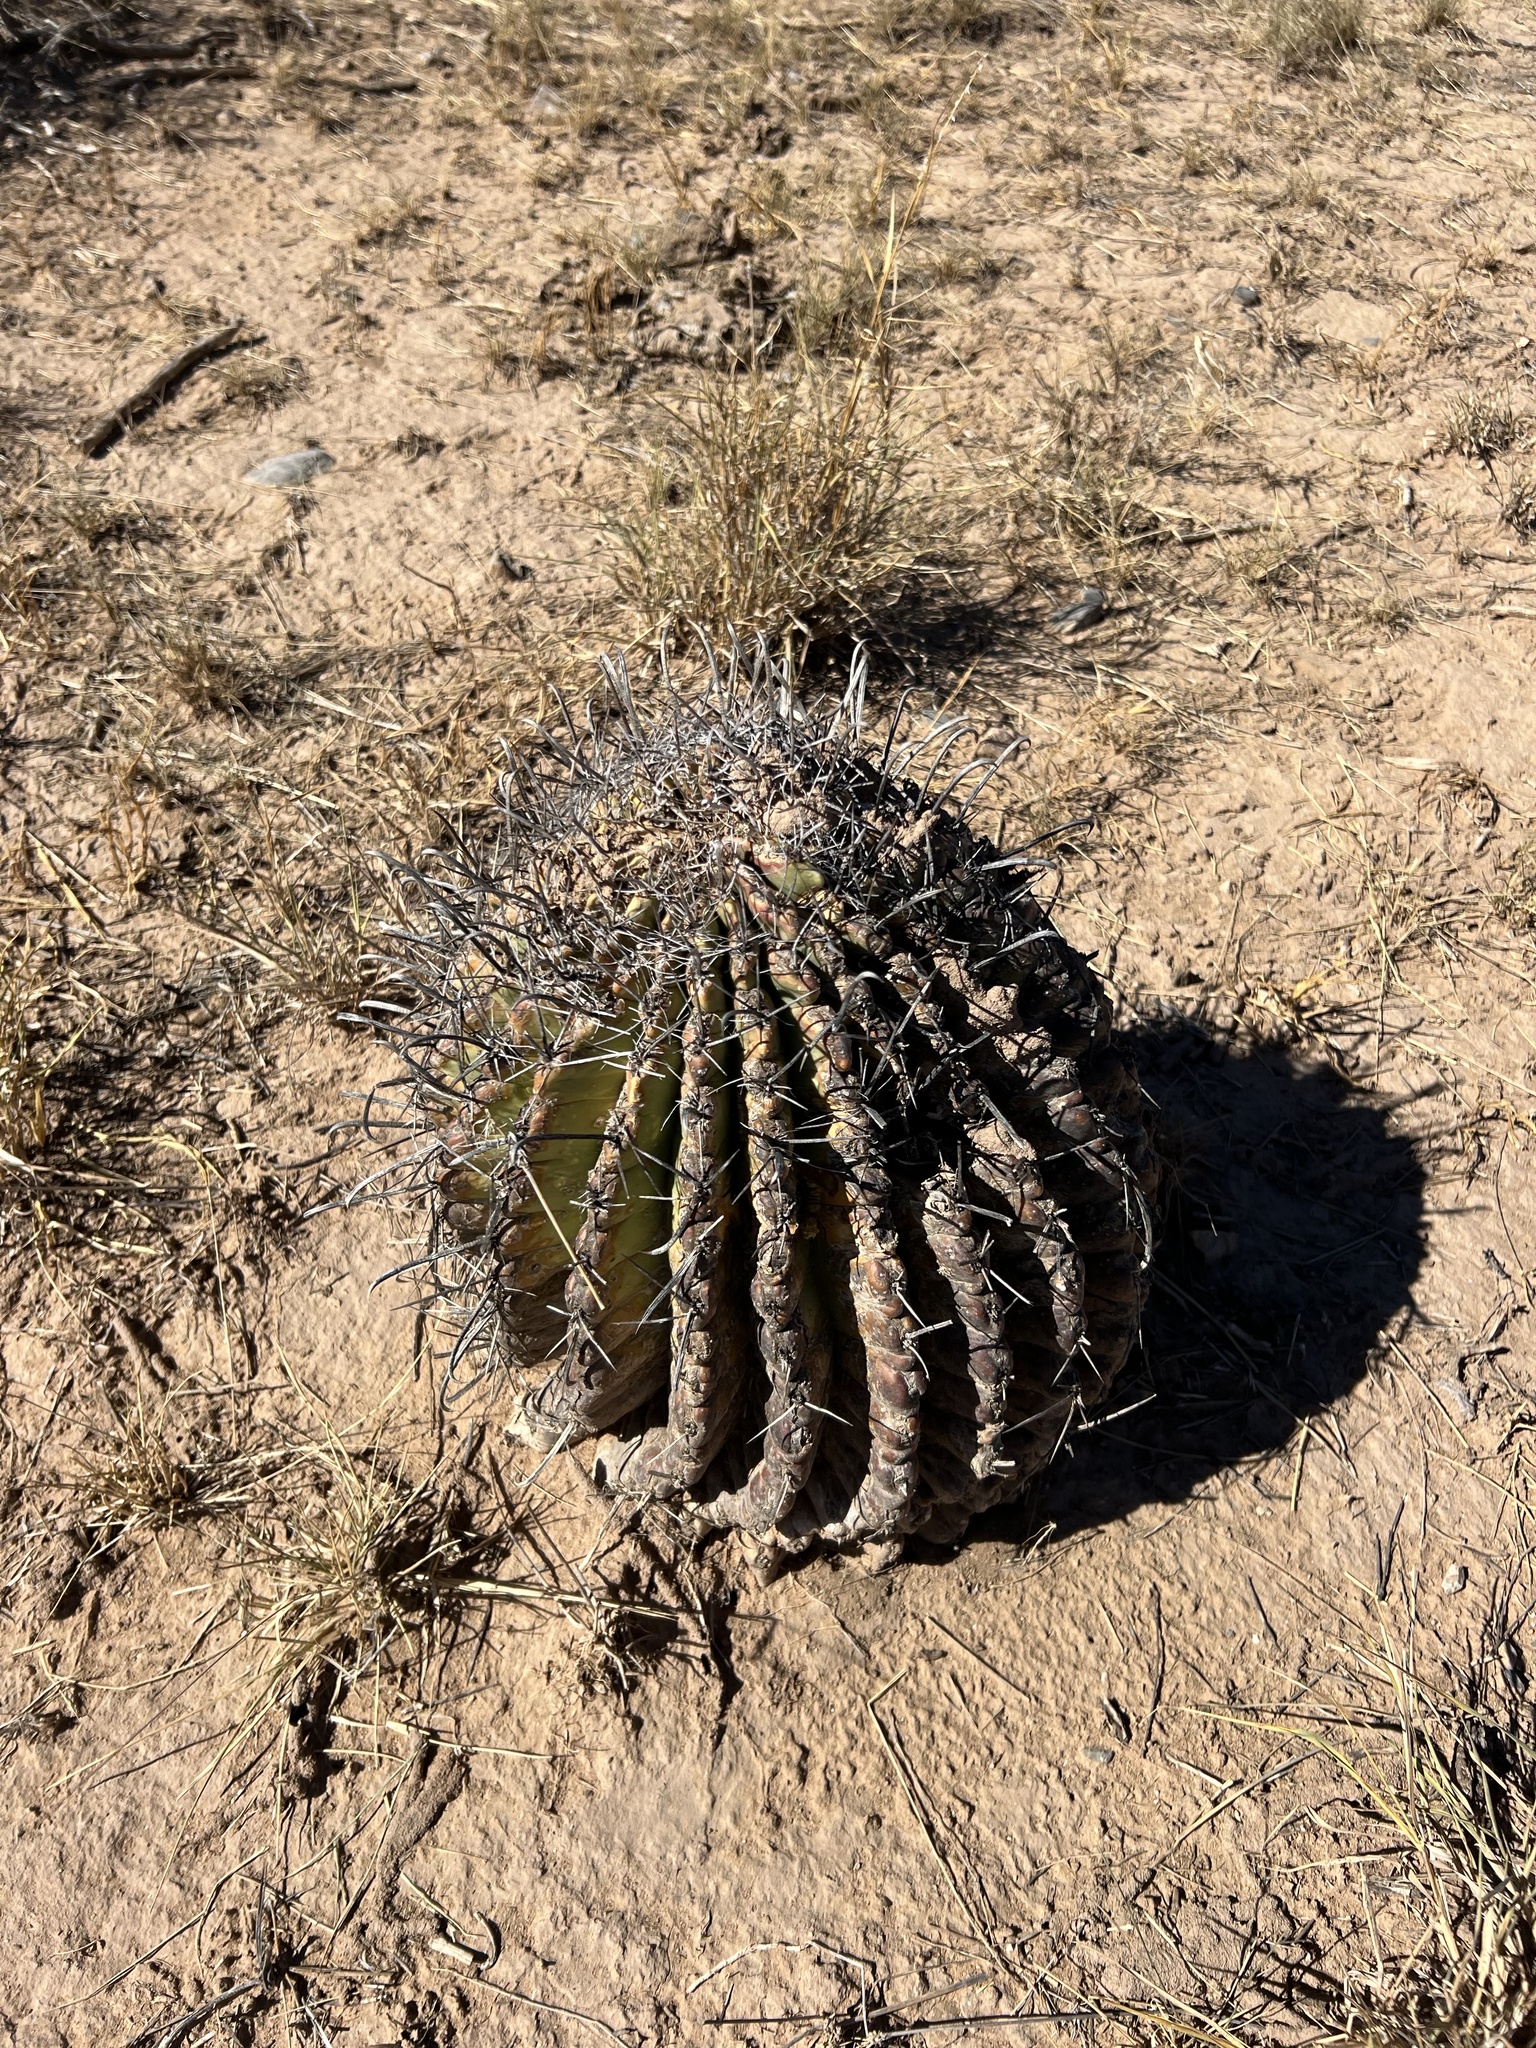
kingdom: Plantae
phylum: Tracheophyta
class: Magnoliopsida
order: Caryophyllales
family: Cactaceae
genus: Ferocactus
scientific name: Ferocactus wislizeni
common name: Candy barrel cactus
